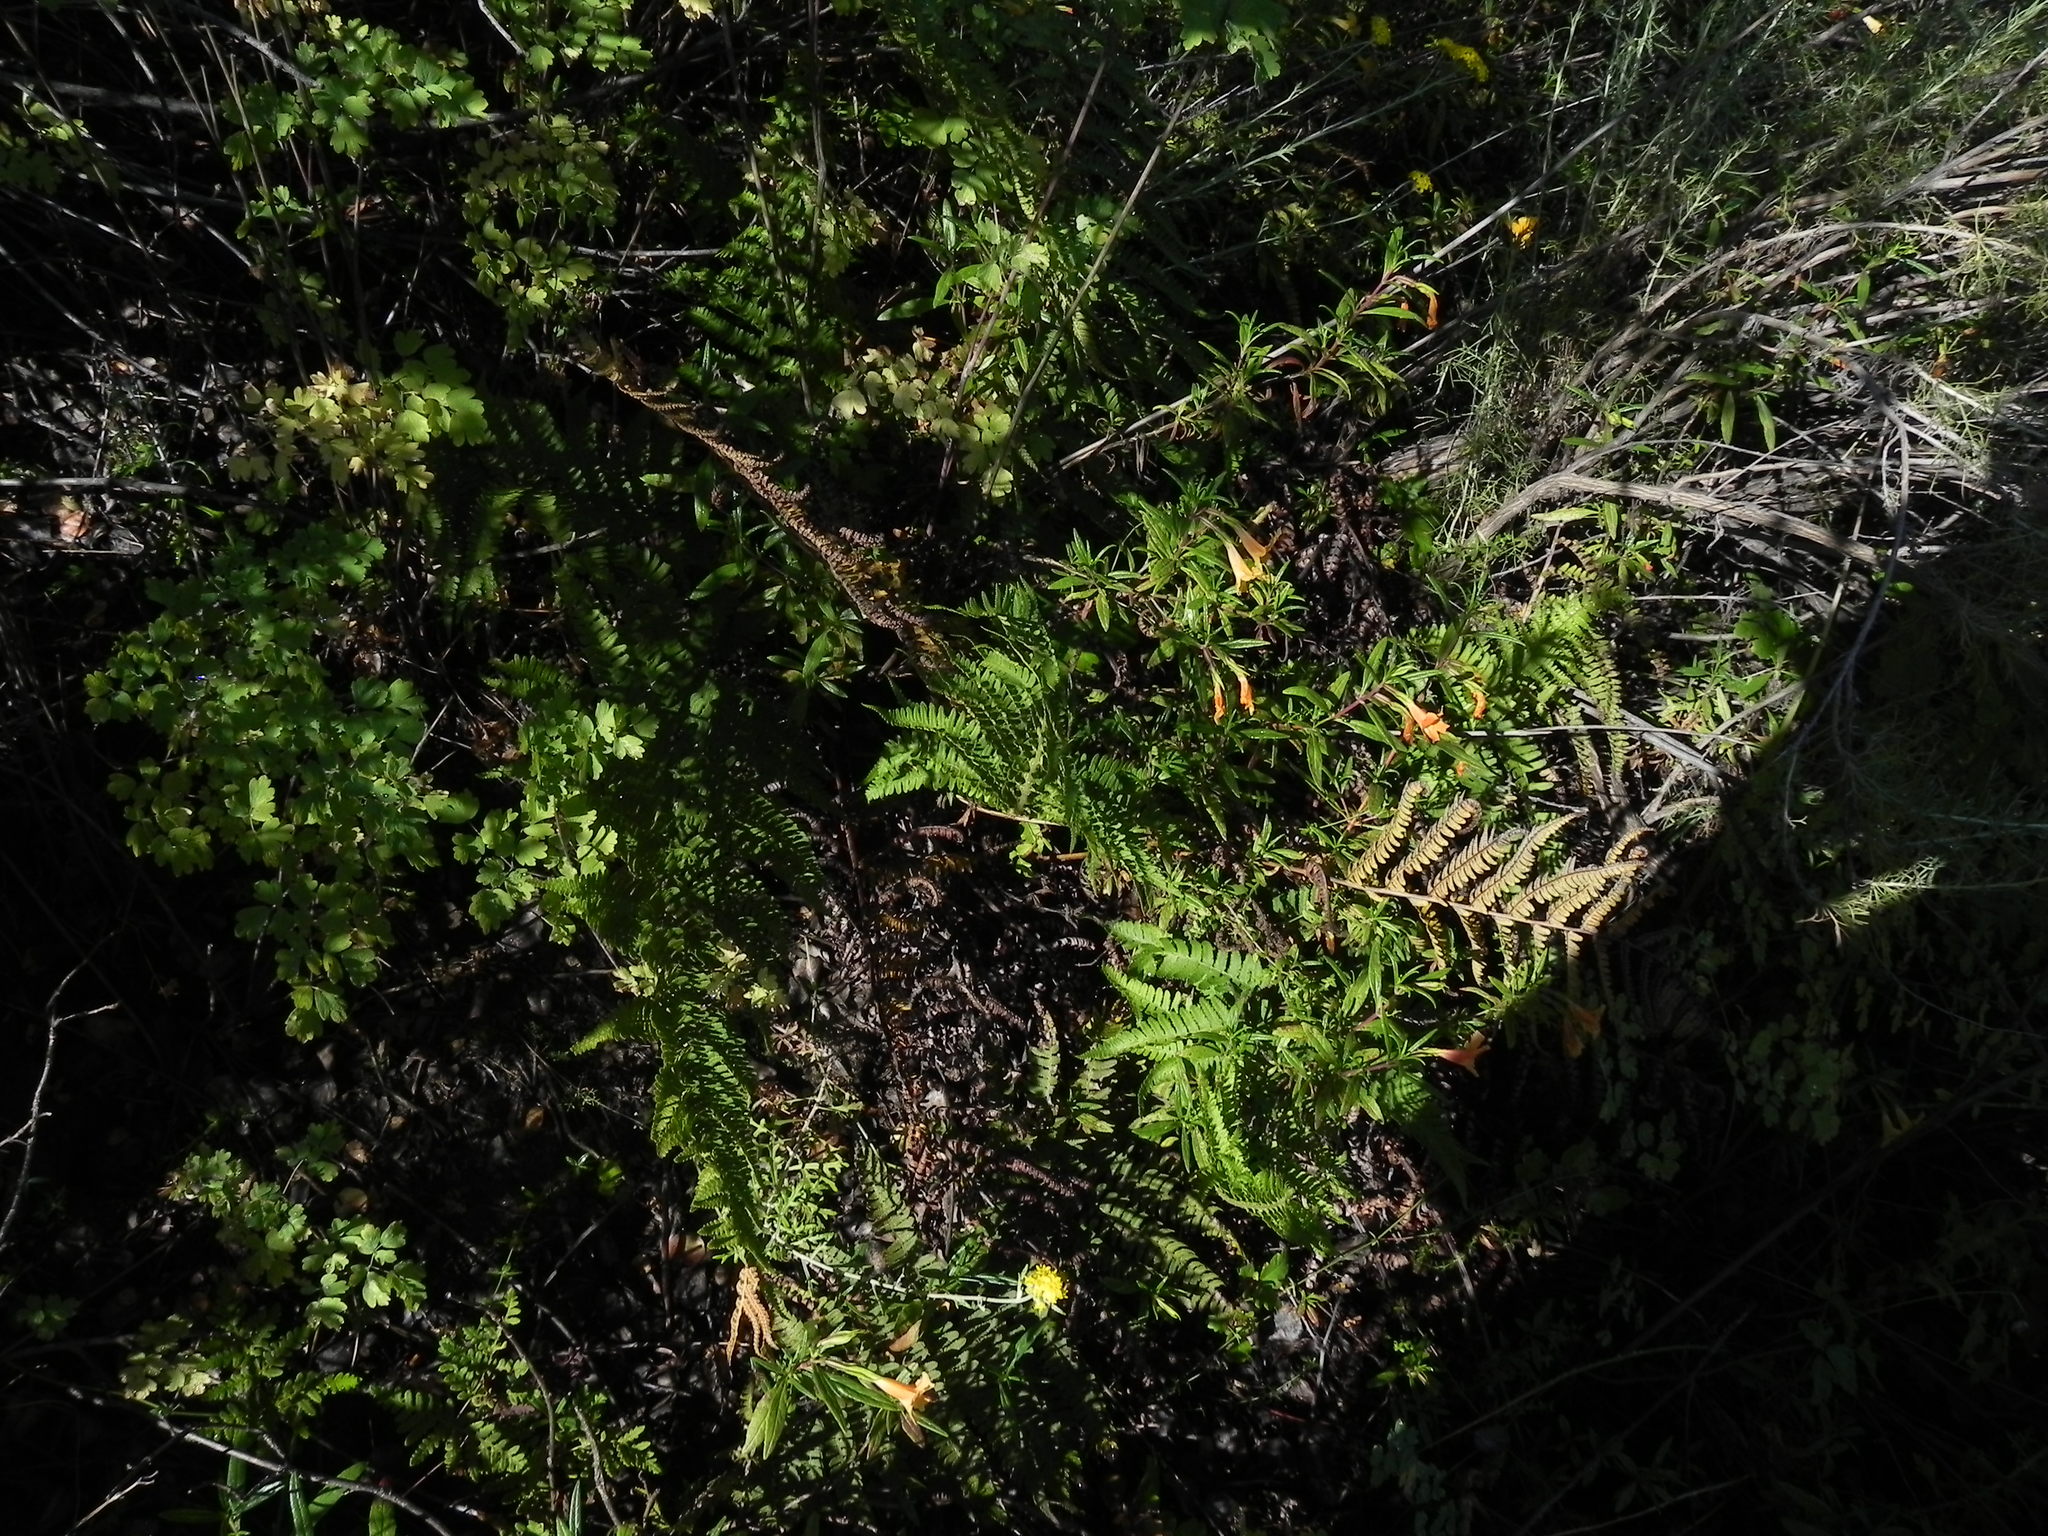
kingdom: Plantae
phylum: Tracheophyta
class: Polypodiopsida
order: Polypodiales
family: Dryopteridaceae
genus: Dryopteris
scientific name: Dryopteris arguta
